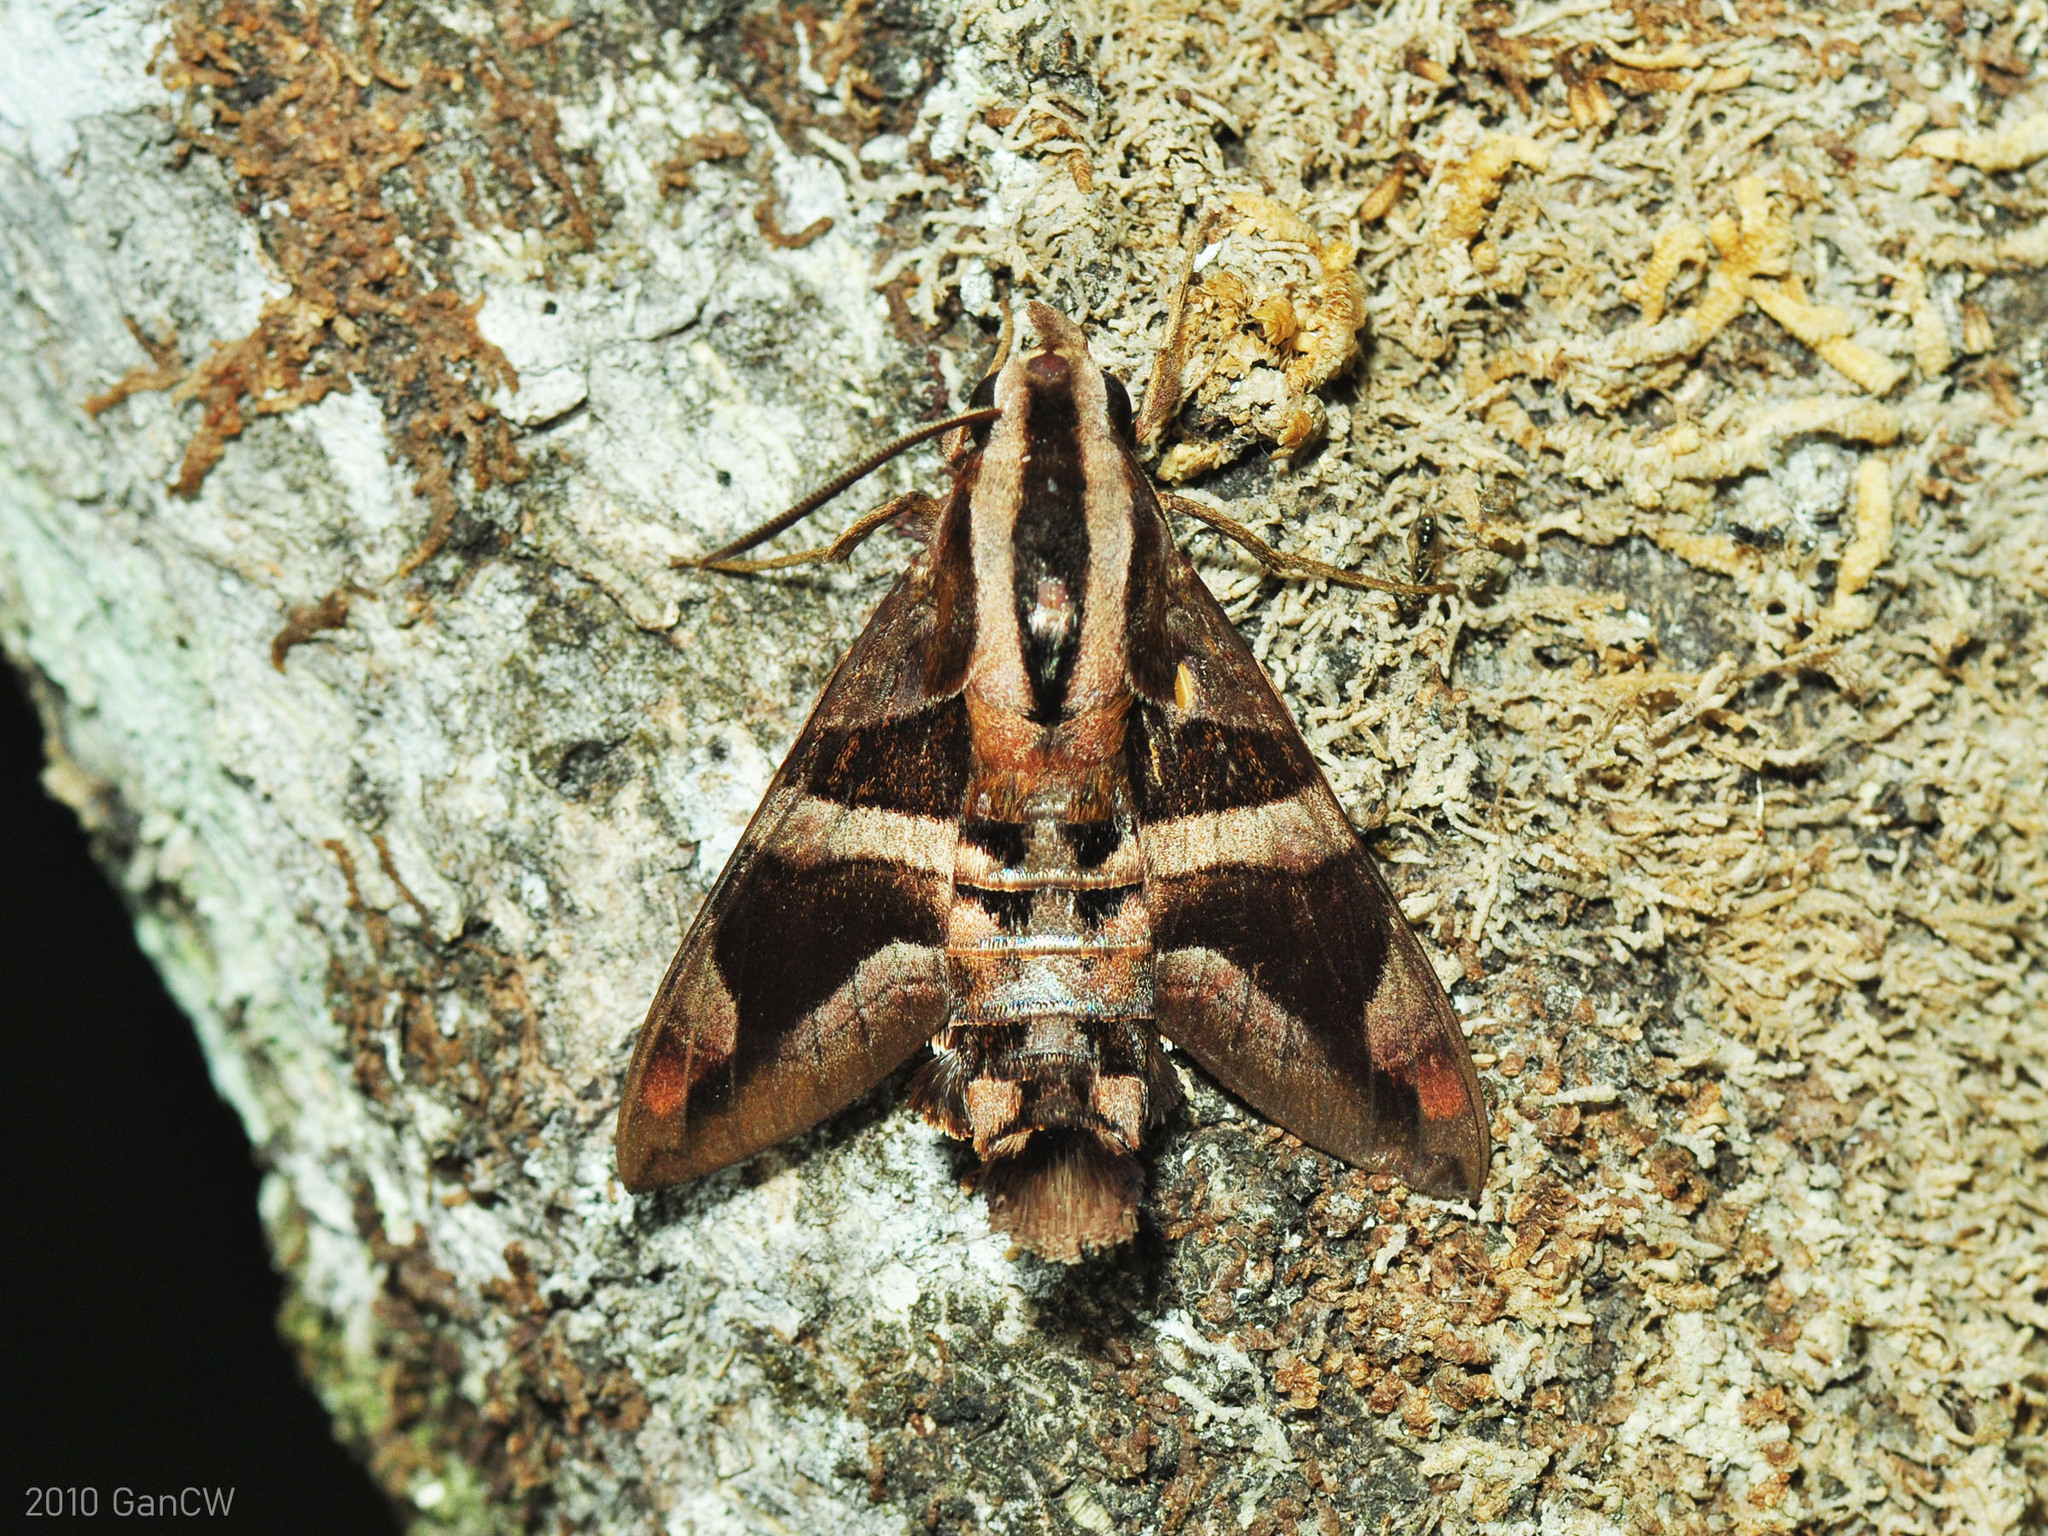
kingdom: Animalia
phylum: Arthropoda
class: Insecta
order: Lepidoptera
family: Sphingidae
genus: Macroglossum
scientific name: Macroglossum mitchellii
